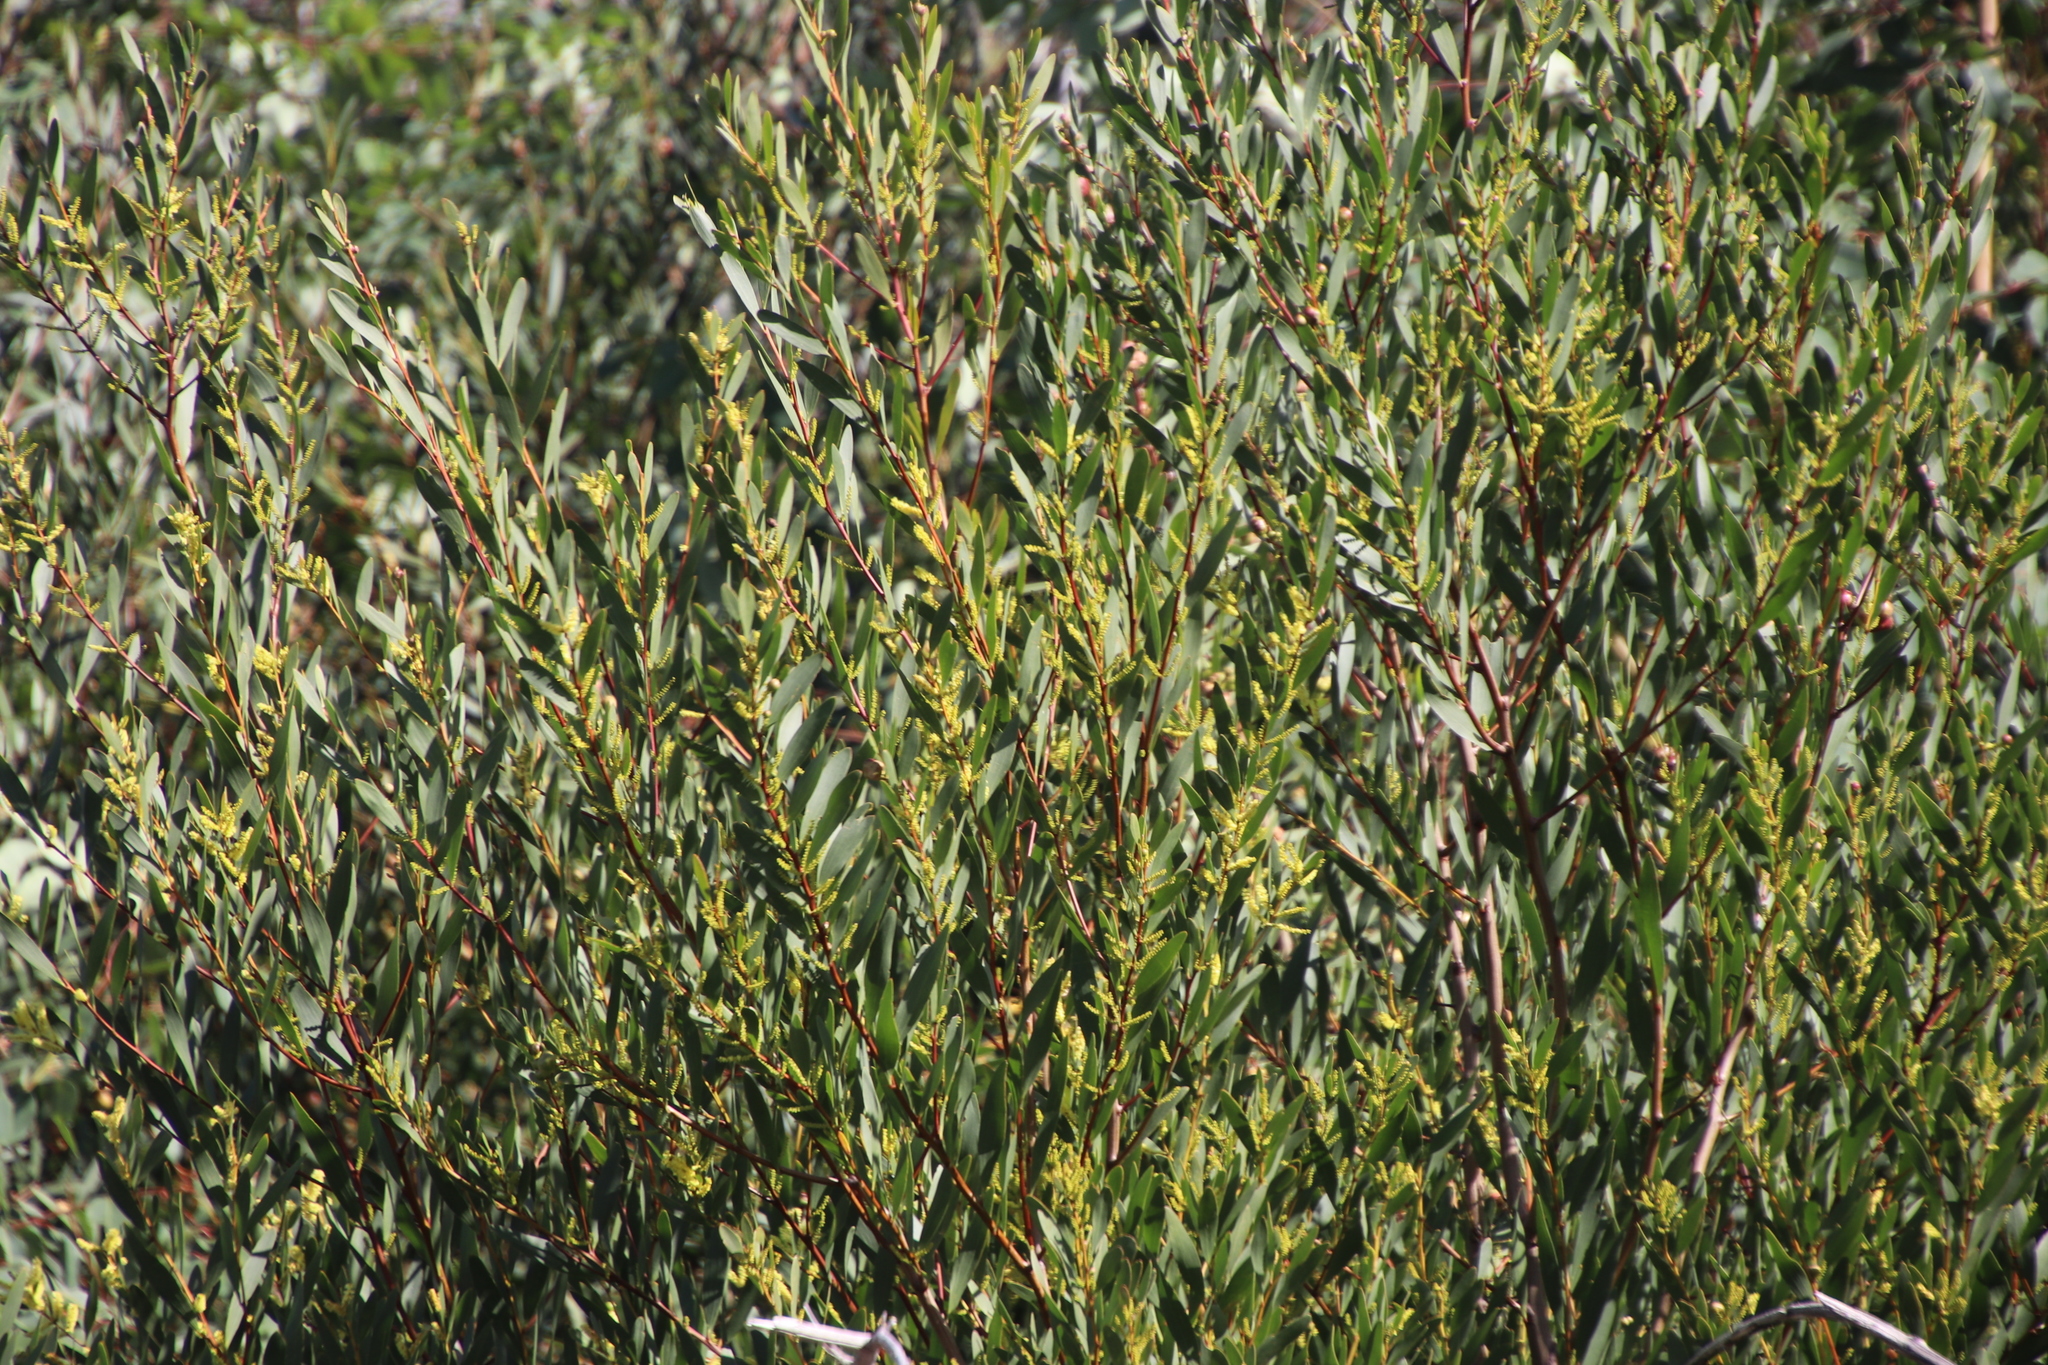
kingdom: Plantae
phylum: Tracheophyta
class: Magnoliopsida
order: Fabales
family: Fabaceae
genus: Acacia
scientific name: Acacia longifolia
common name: Sydney golden wattle
